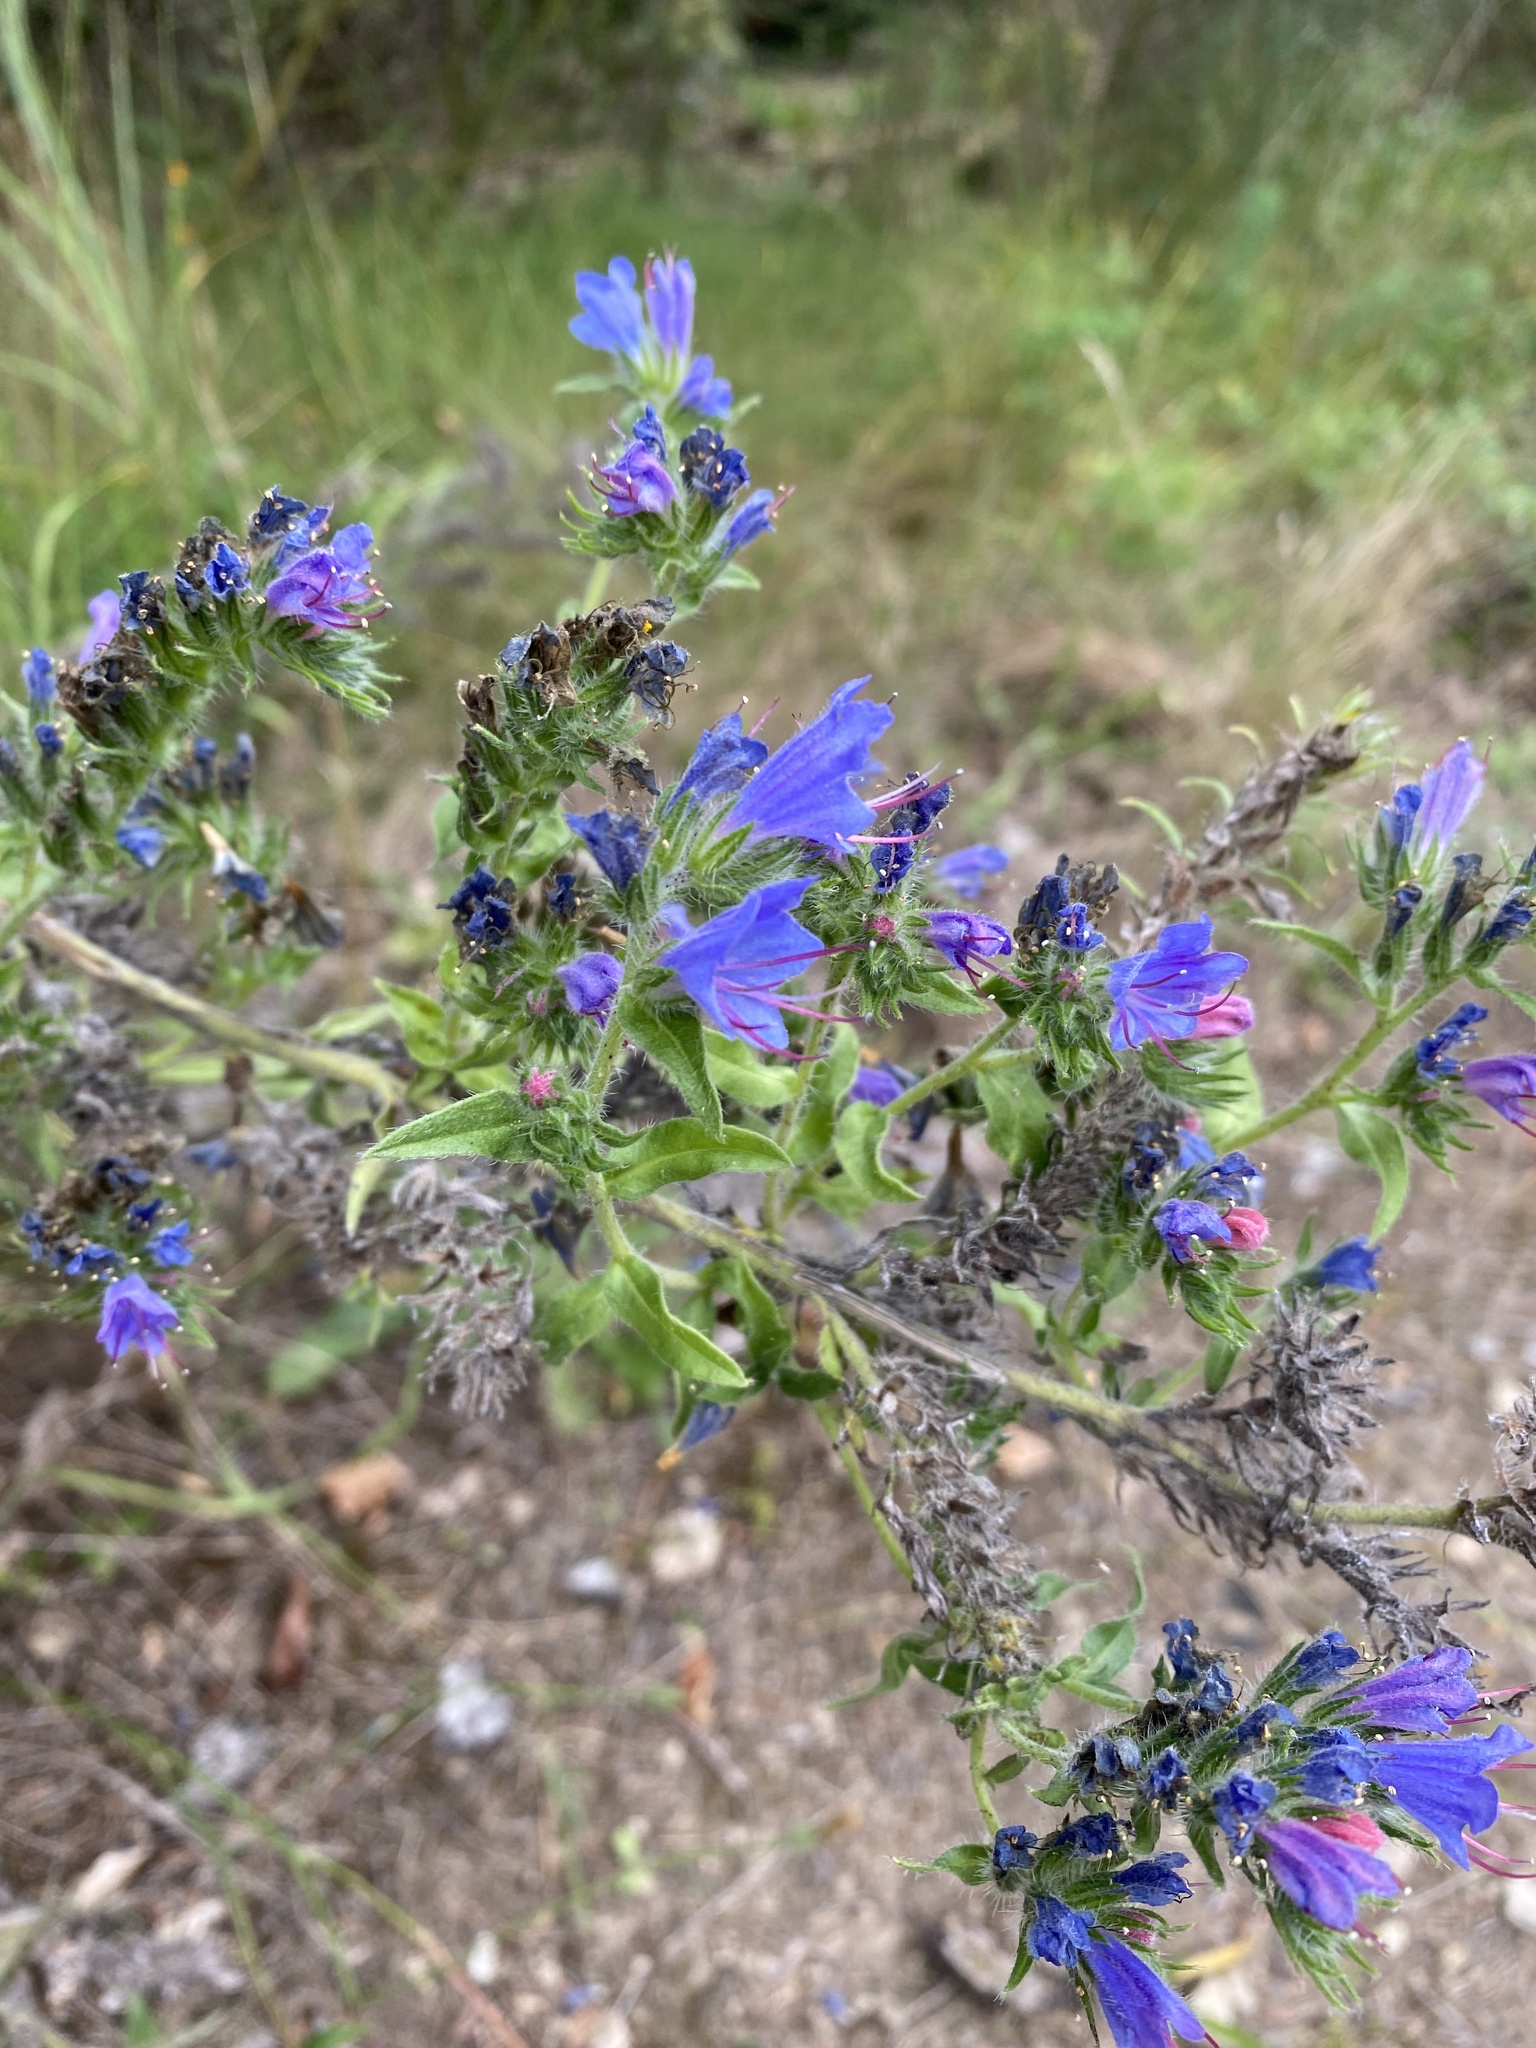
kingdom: Plantae
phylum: Tracheophyta
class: Magnoliopsida
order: Boraginales
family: Boraginaceae
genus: Echium
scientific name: Echium vulgare
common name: Common viper's bugloss
